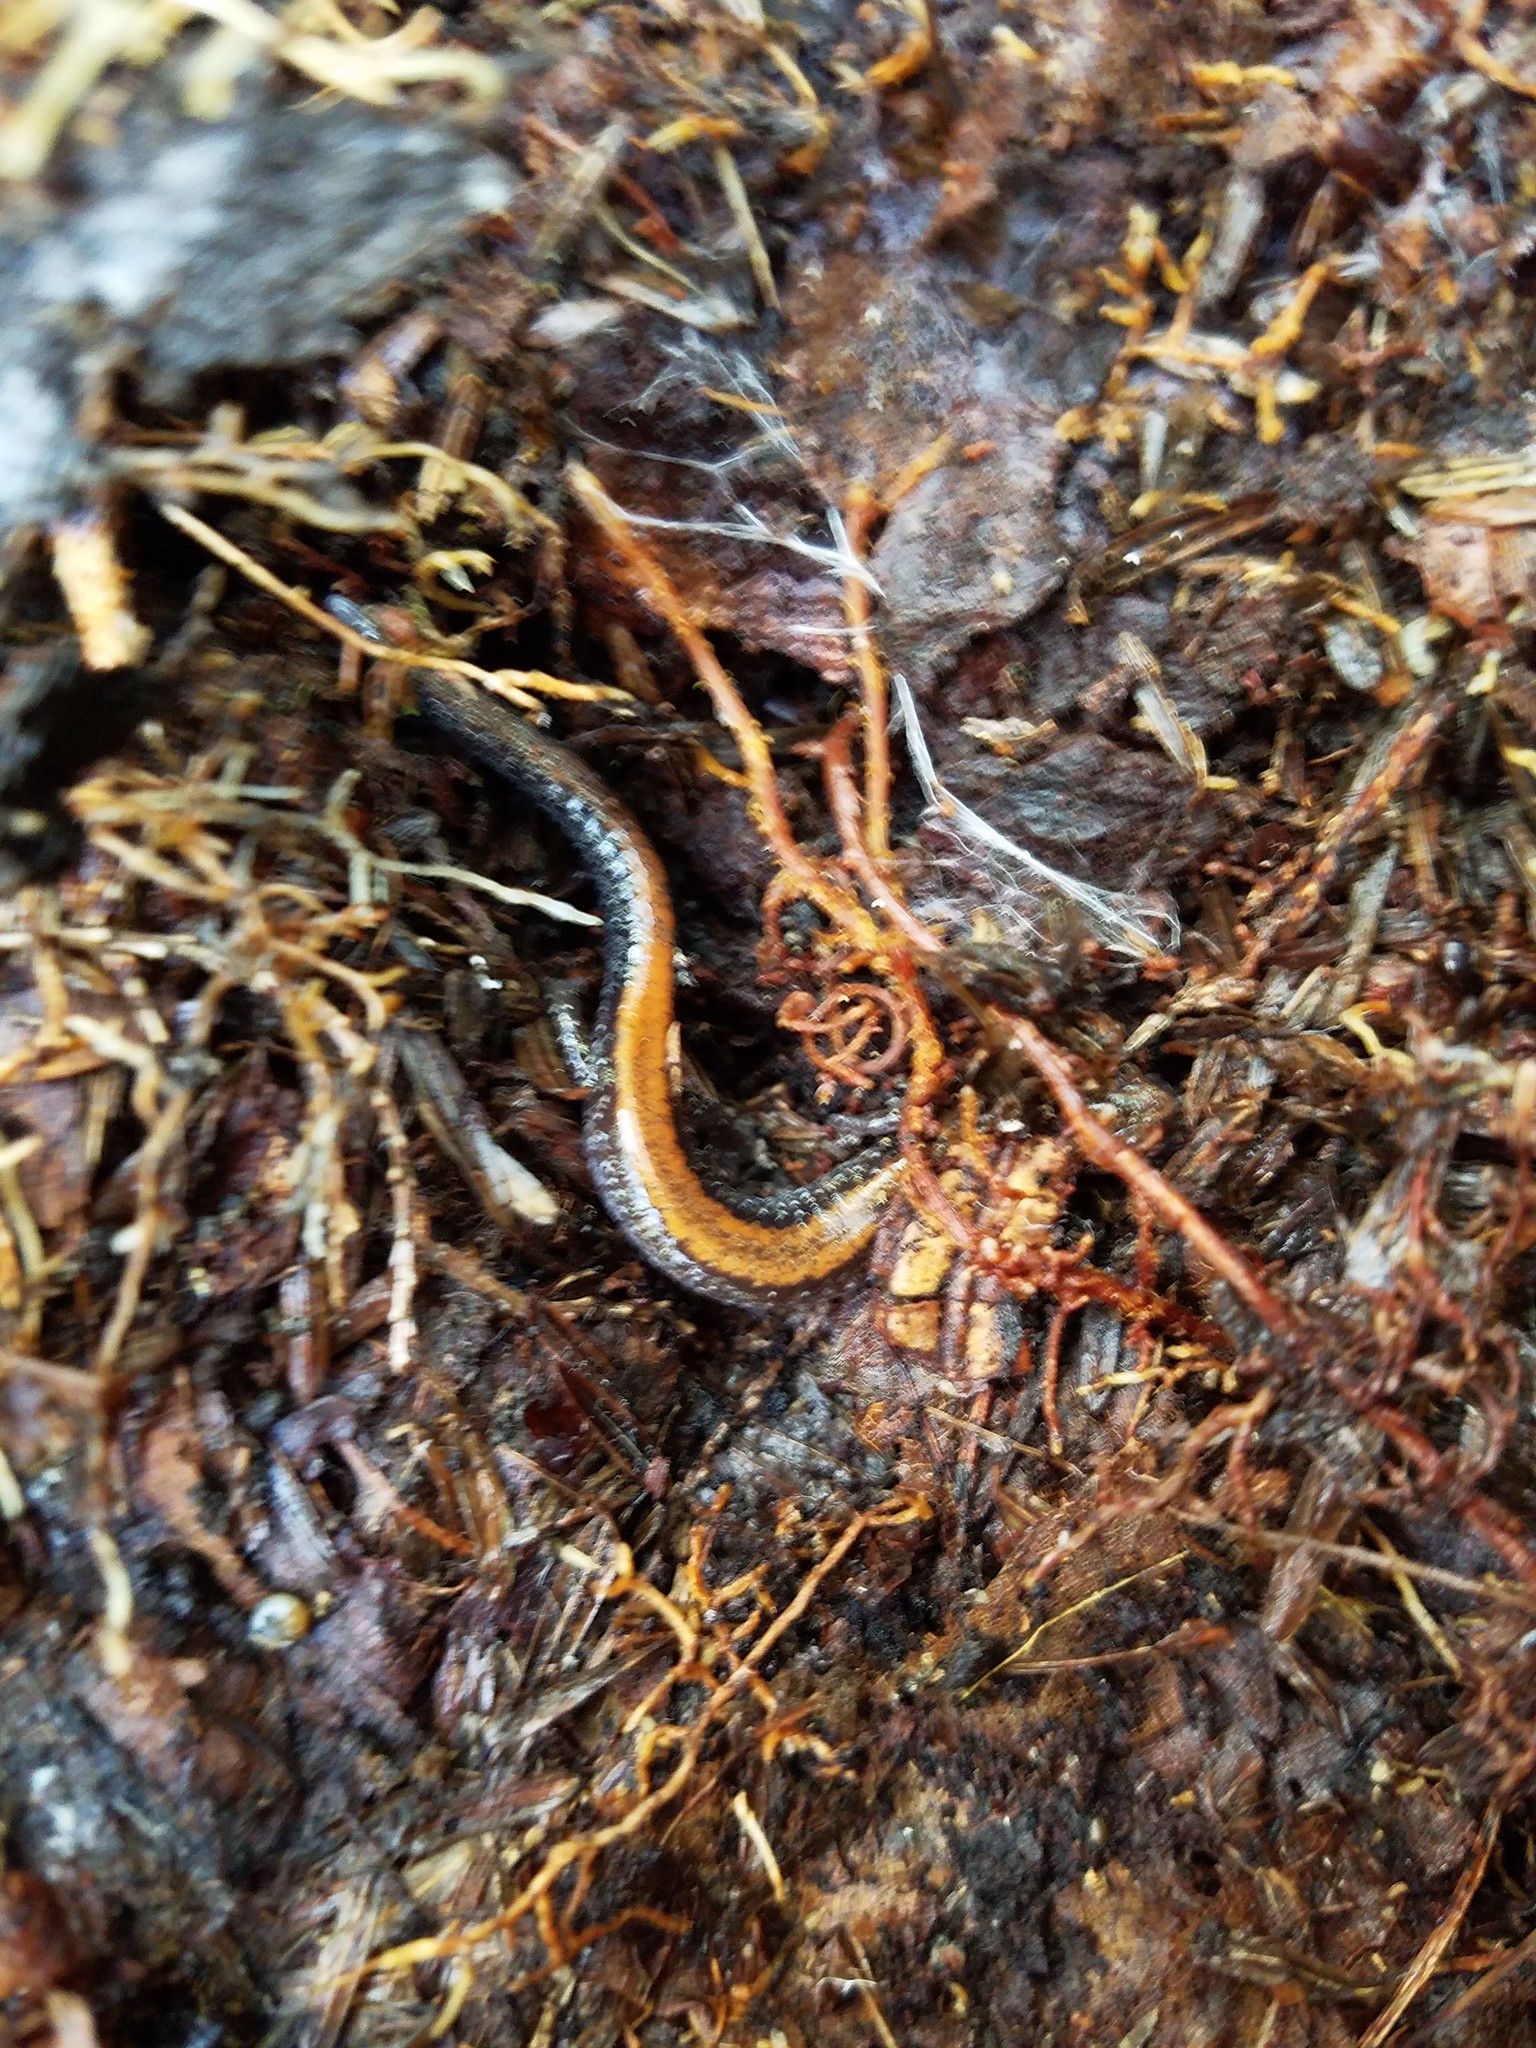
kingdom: Animalia
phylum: Chordata
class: Amphibia
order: Caudata
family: Plethodontidae
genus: Plethodon
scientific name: Plethodon cinereus
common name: Redback salamander
